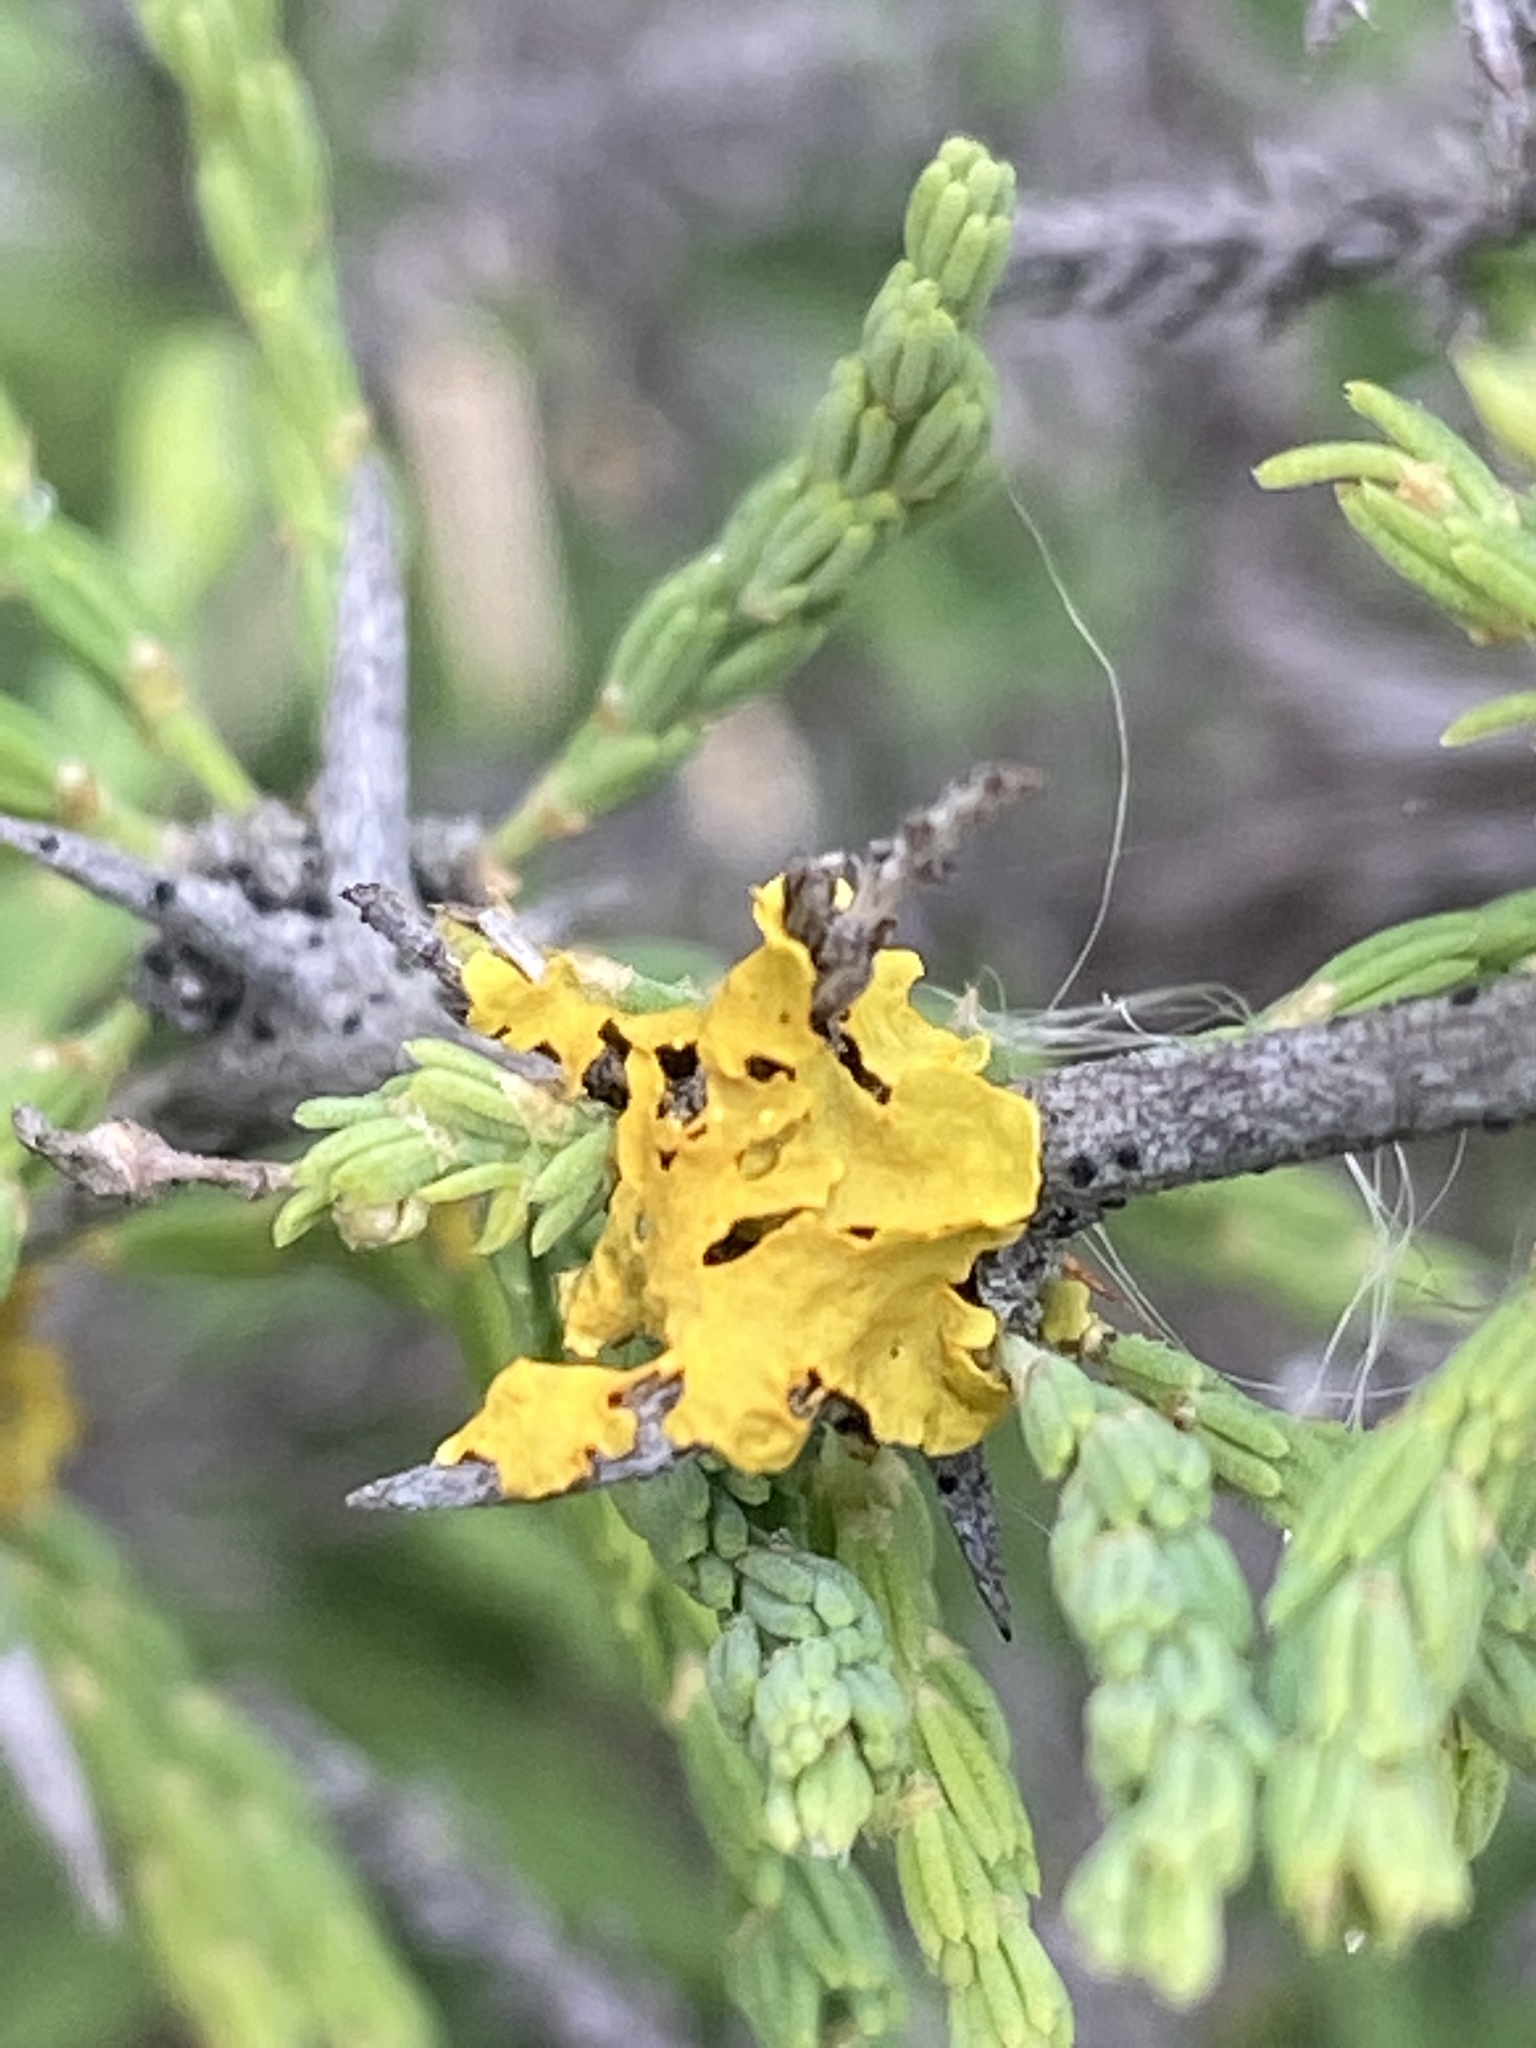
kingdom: Fungi
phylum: Ascomycota
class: Lecanoromycetes
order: Teloschistales
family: Teloschistaceae
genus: Xanthoria
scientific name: Xanthoria parietina
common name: Common orange lichen
